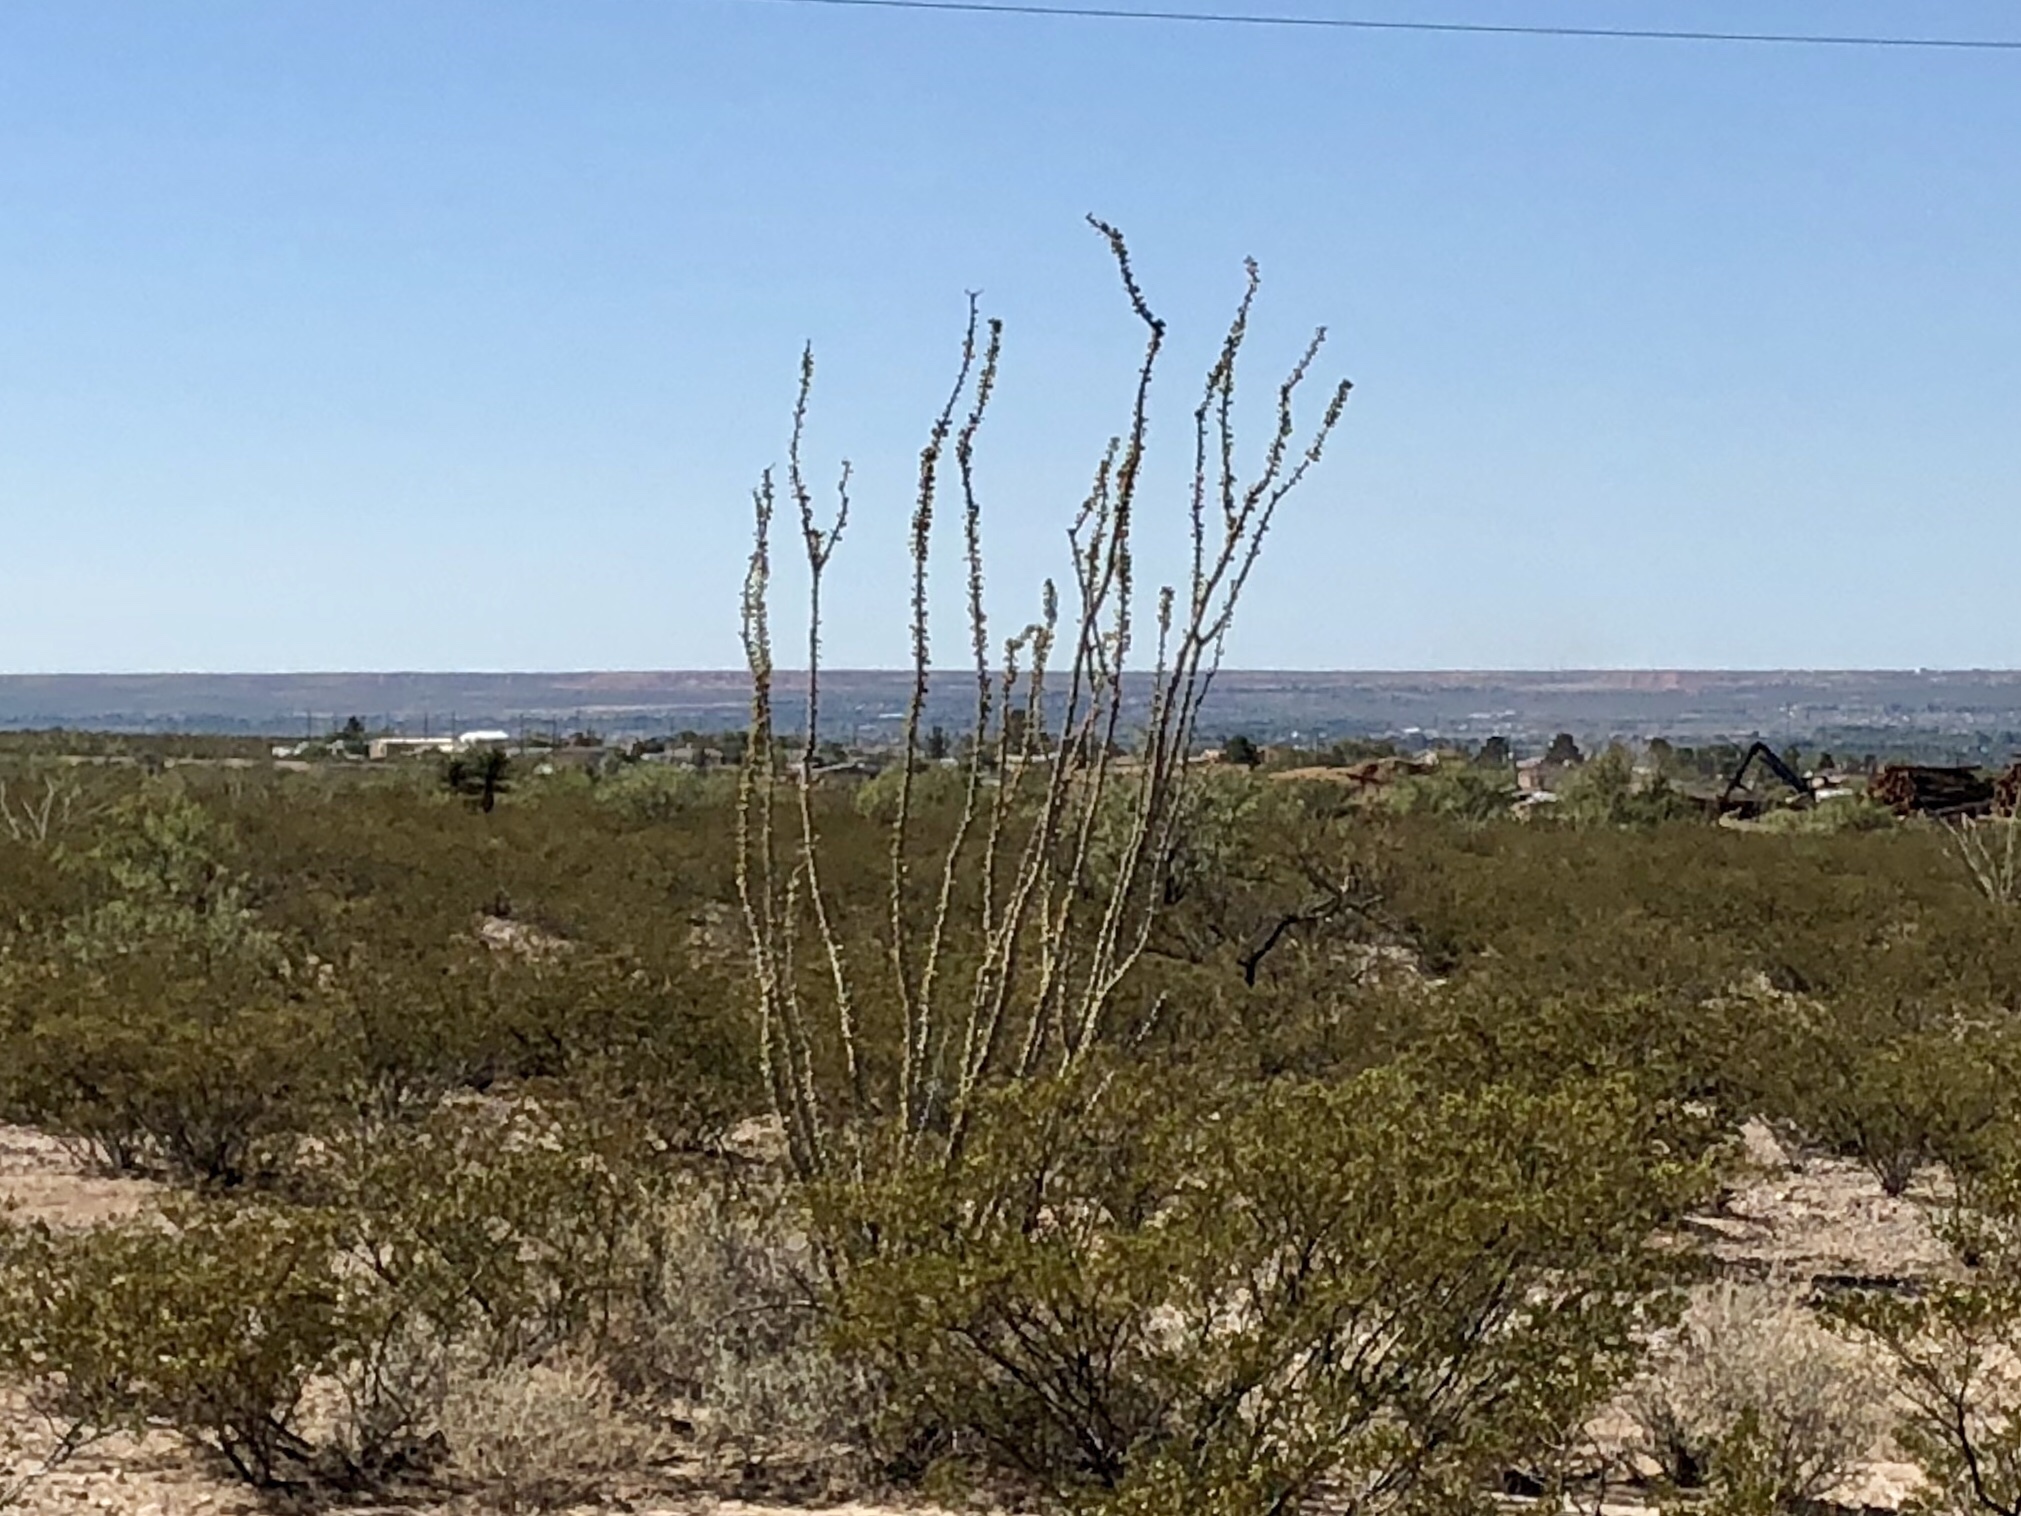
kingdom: Plantae
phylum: Tracheophyta
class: Magnoliopsida
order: Ericales
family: Fouquieriaceae
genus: Fouquieria
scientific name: Fouquieria splendens
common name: Vine-cactus
